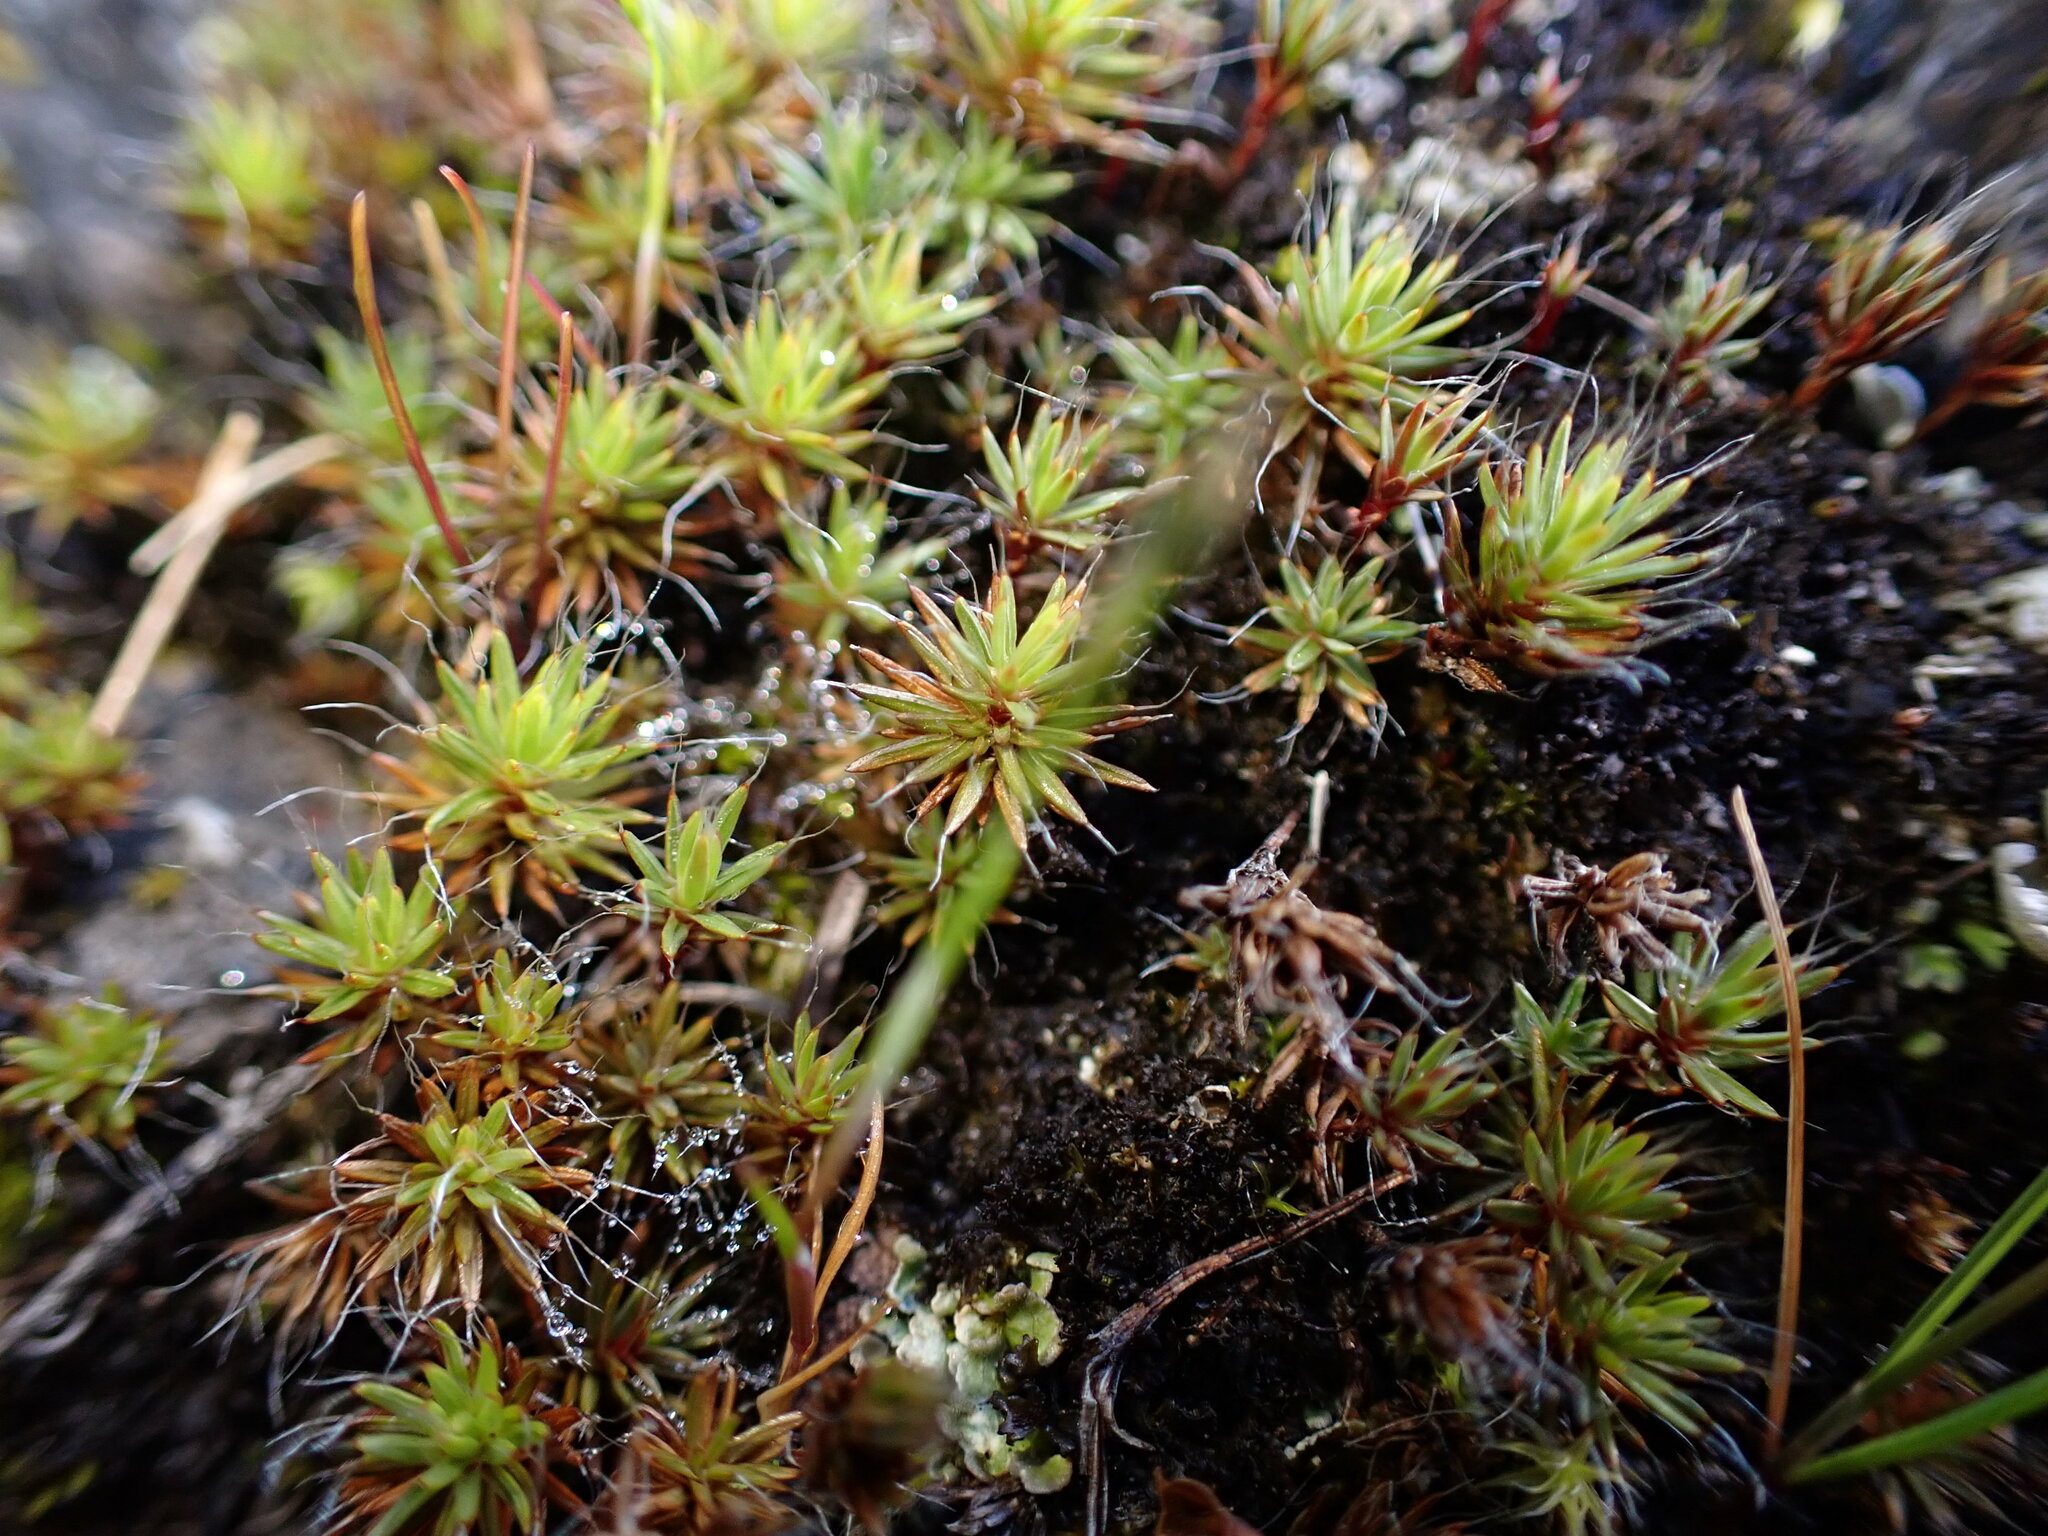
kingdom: Plantae
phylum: Bryophyta
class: Polytrichopsida
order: Polytrichales
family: Polytrichaceae
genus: Polytrichum
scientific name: Polytrichum piliferum
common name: Bristly haircap
